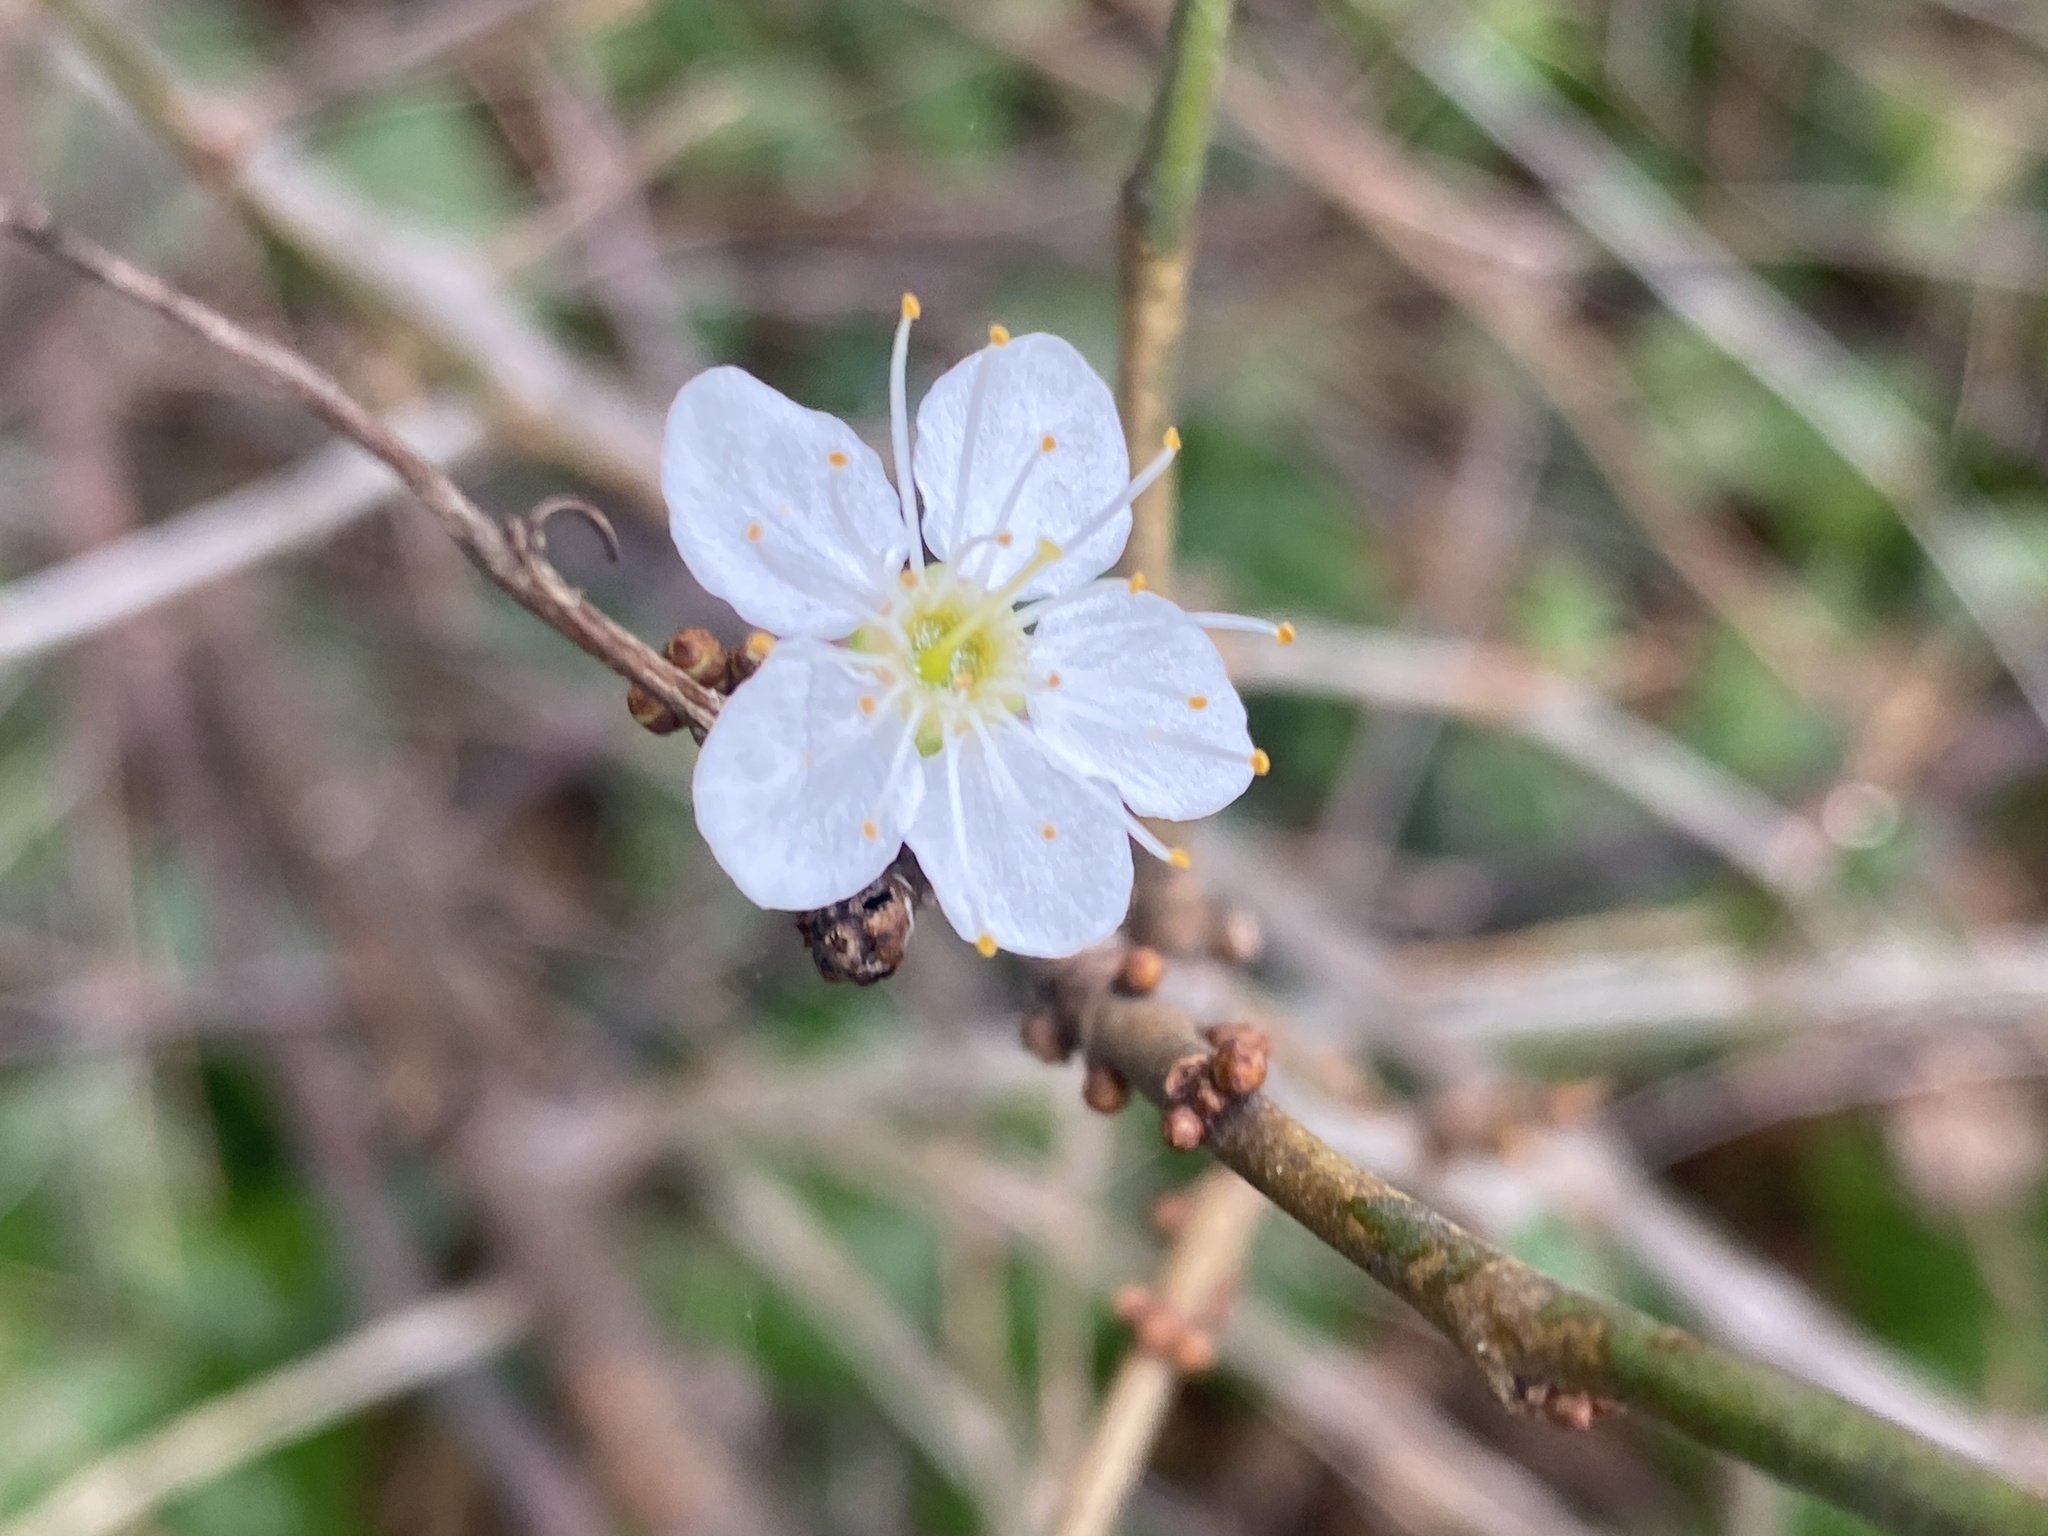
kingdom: Plantae
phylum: Tracheophyta
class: Magnoliopsida
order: Rosales
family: Rosaceae
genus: Prunus
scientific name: Prunus cerasifera
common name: Cherry plum
